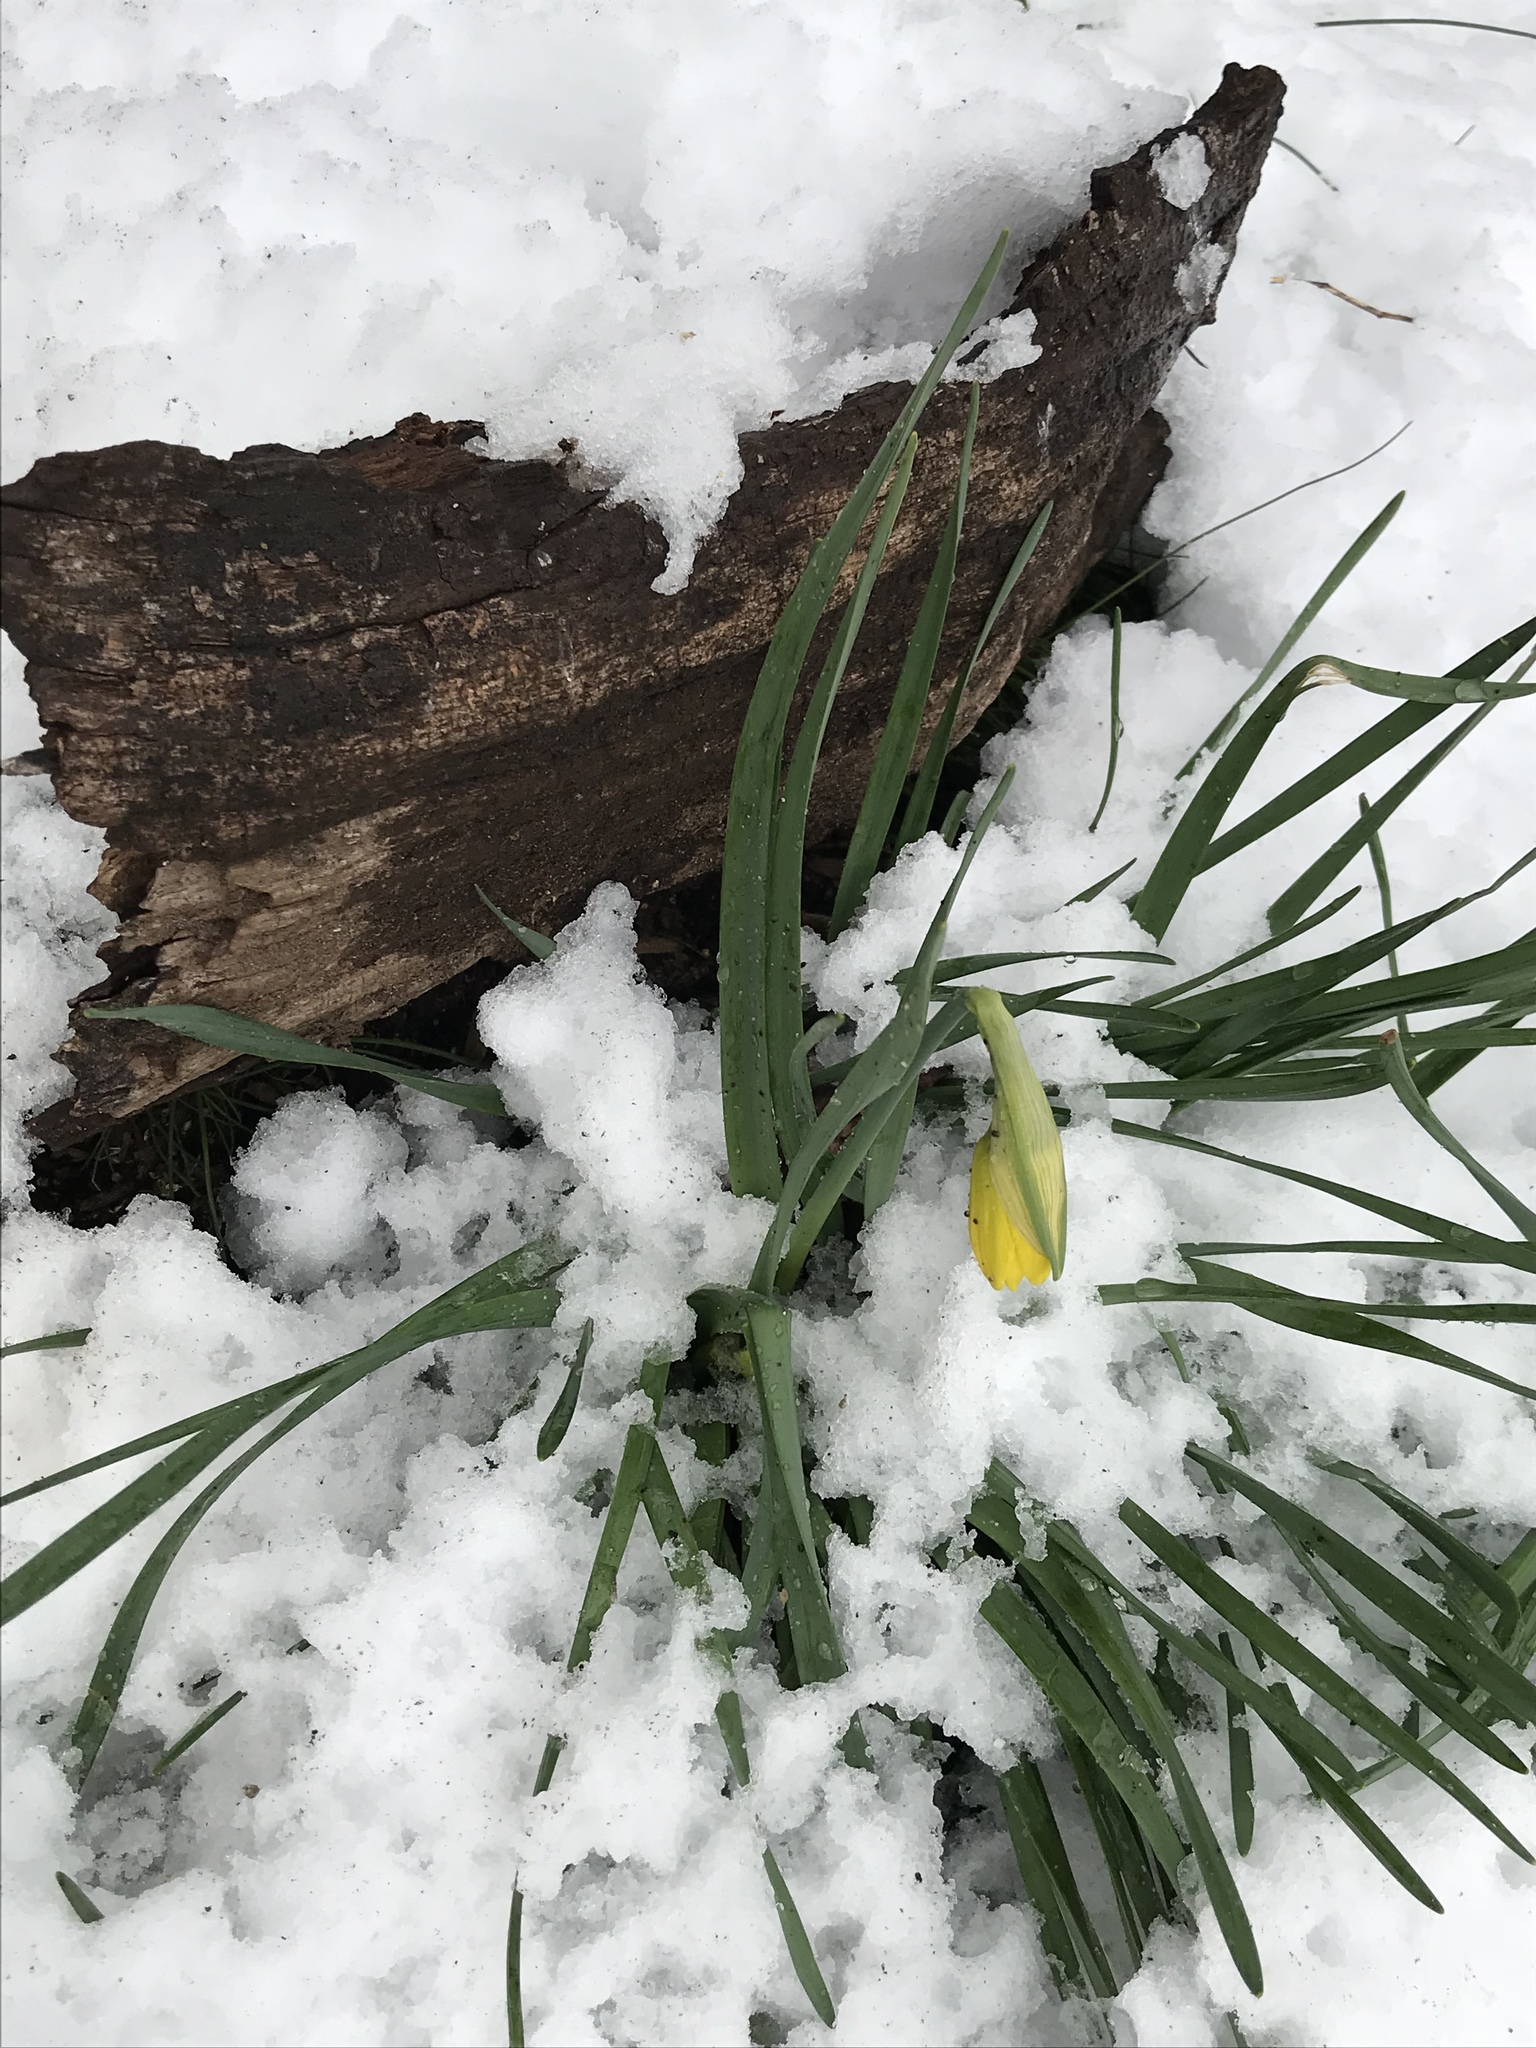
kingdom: Plantae
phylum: Tracheophyta
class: Liliopsida
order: Asparagales
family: Amaryllidaceae
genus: Narcissus
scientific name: Narcissus
